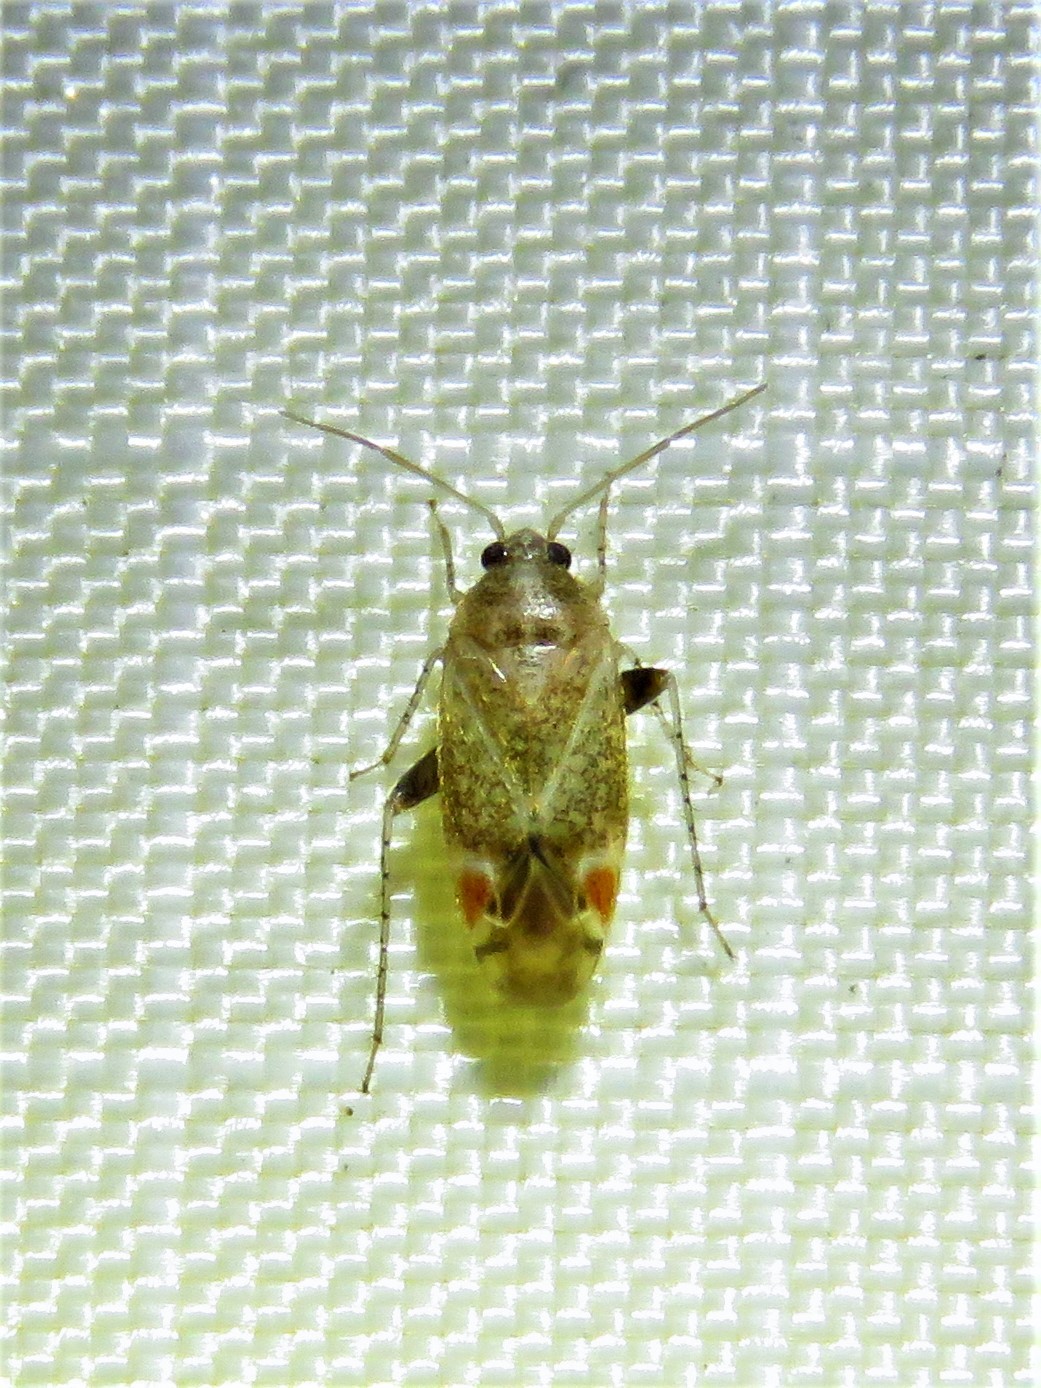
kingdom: Animalia
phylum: Arthropoda
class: Insecta
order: Hemiptera
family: Miridae
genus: Hamatophylus
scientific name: Hamatophylus guttulosus
